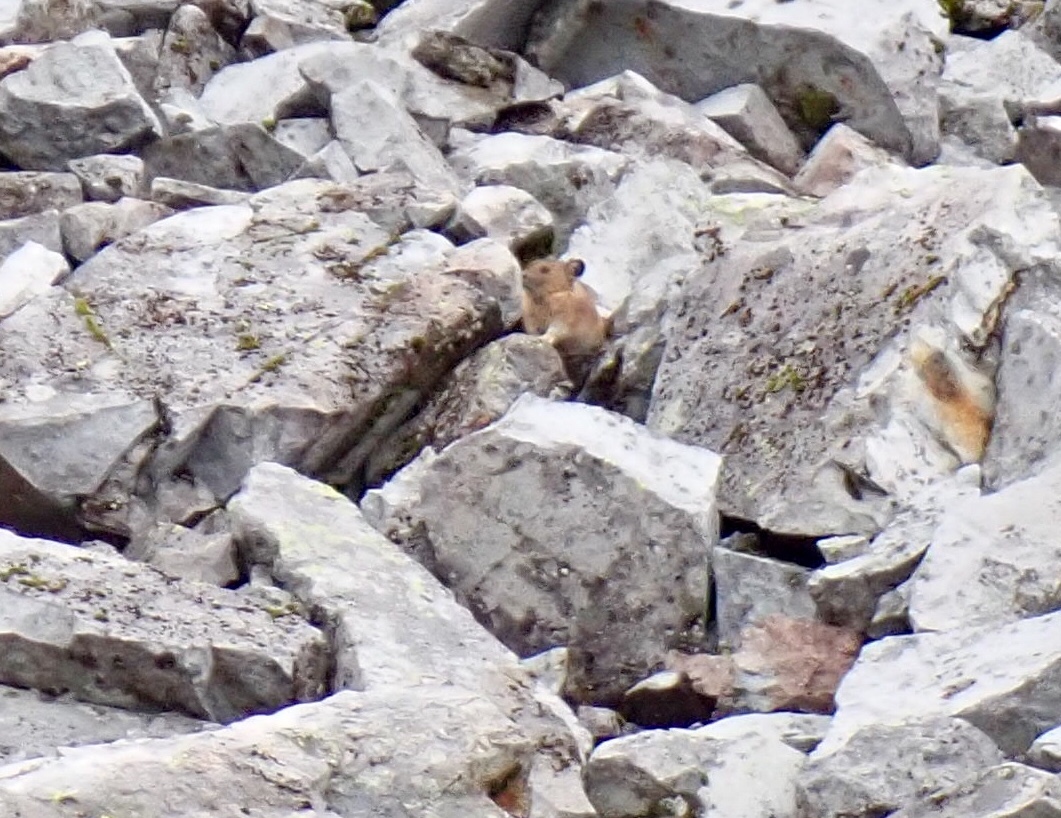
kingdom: Animalia
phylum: Chordata
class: Mammalia
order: Lagomorpha
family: Ochotonidae
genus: Ochotona
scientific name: Ochotona princeps
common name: American pika
